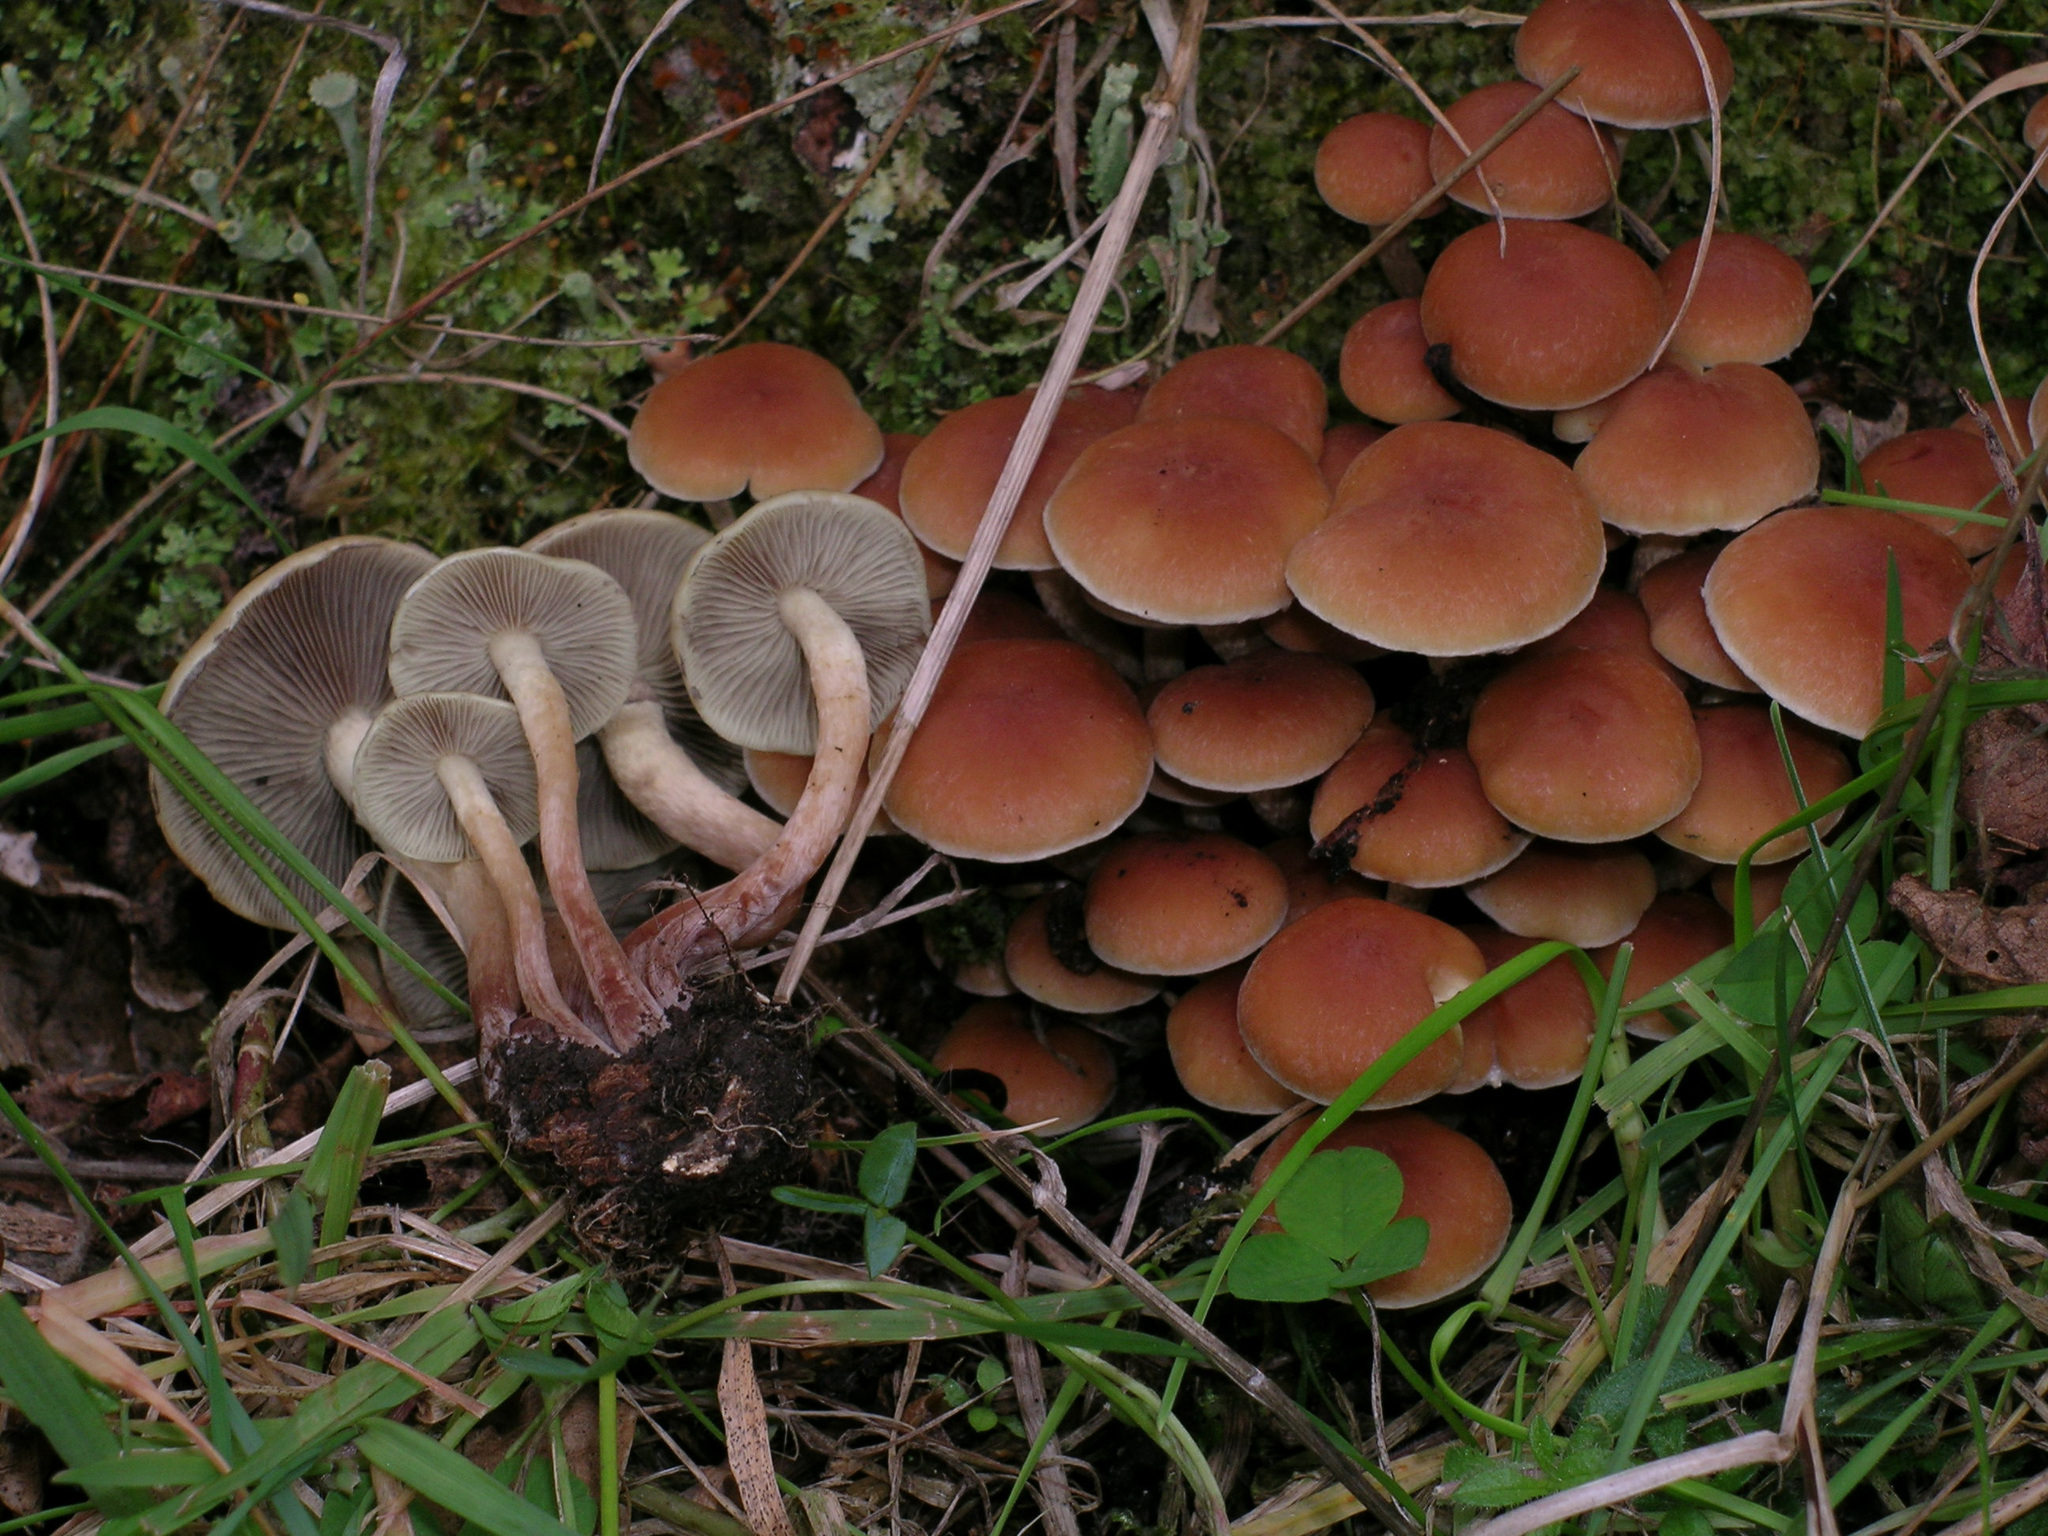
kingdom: Fungi
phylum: Basidiomycota
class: Agaricomycetes
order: Agaricales
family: Strophariaceae
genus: Hypholoma
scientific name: Hypholoma australianum
